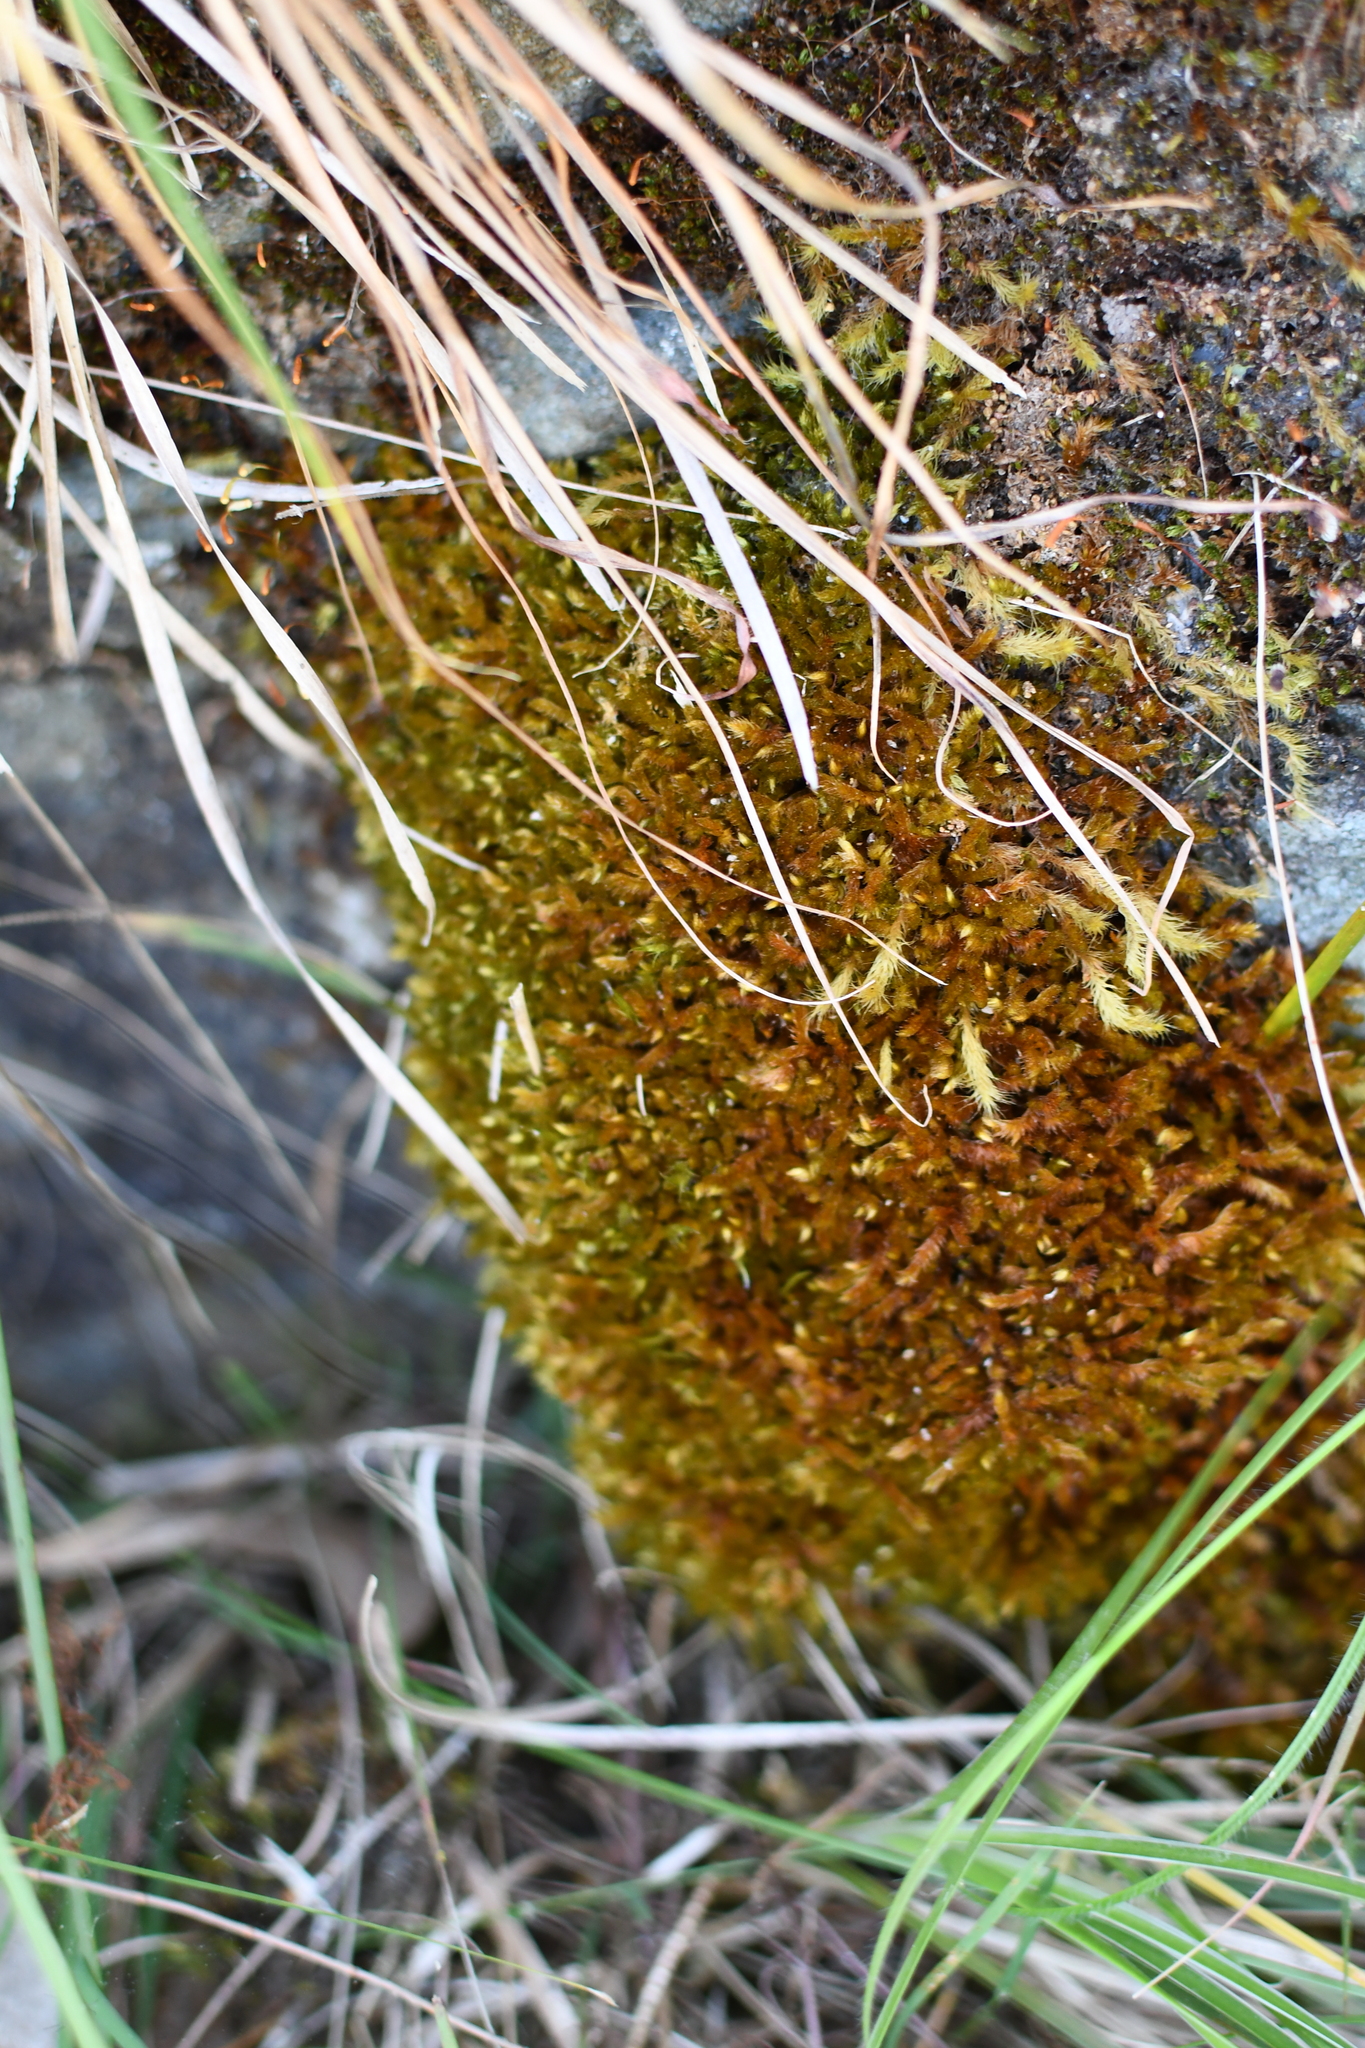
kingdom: Plantae
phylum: Bryophyta
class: Bryopsida
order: Hypnales
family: Sematophyllaceae
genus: Sematophyllum
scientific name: Sematophyllum homomallum
